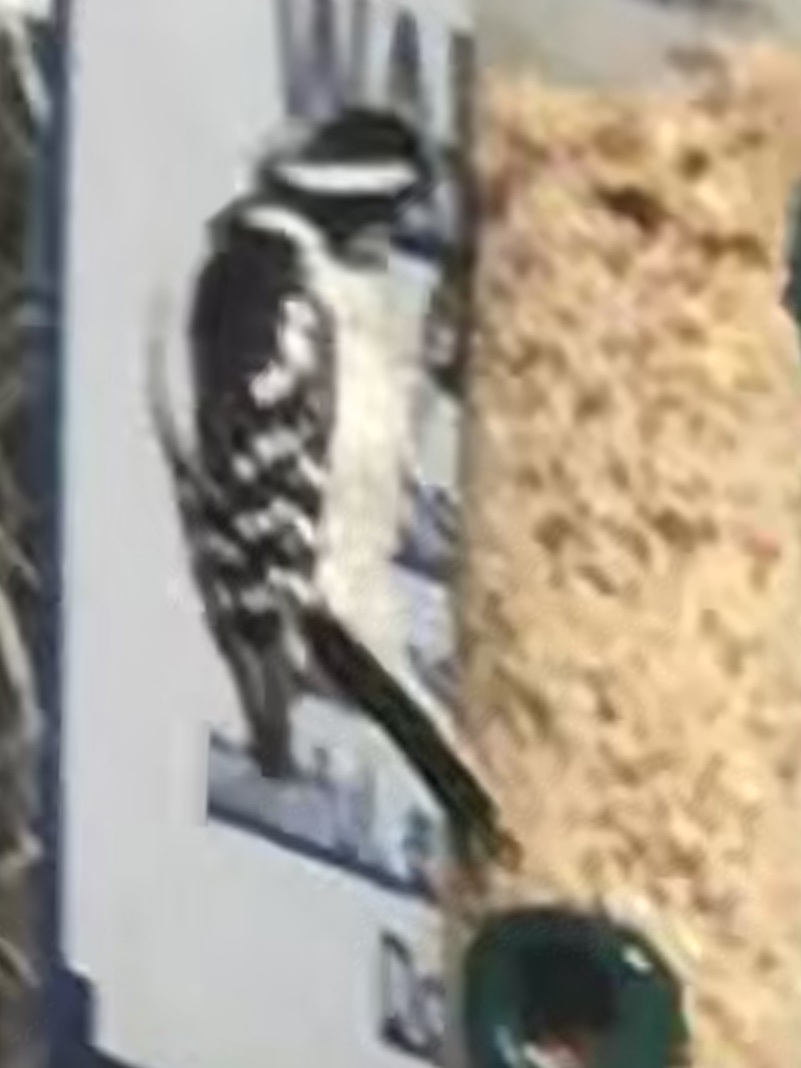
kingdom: Animalia
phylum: Chordata
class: Aves
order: Piciformes
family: Picidae
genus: Dryobates
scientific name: Dryobates pubescens
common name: Downy woodpecker
